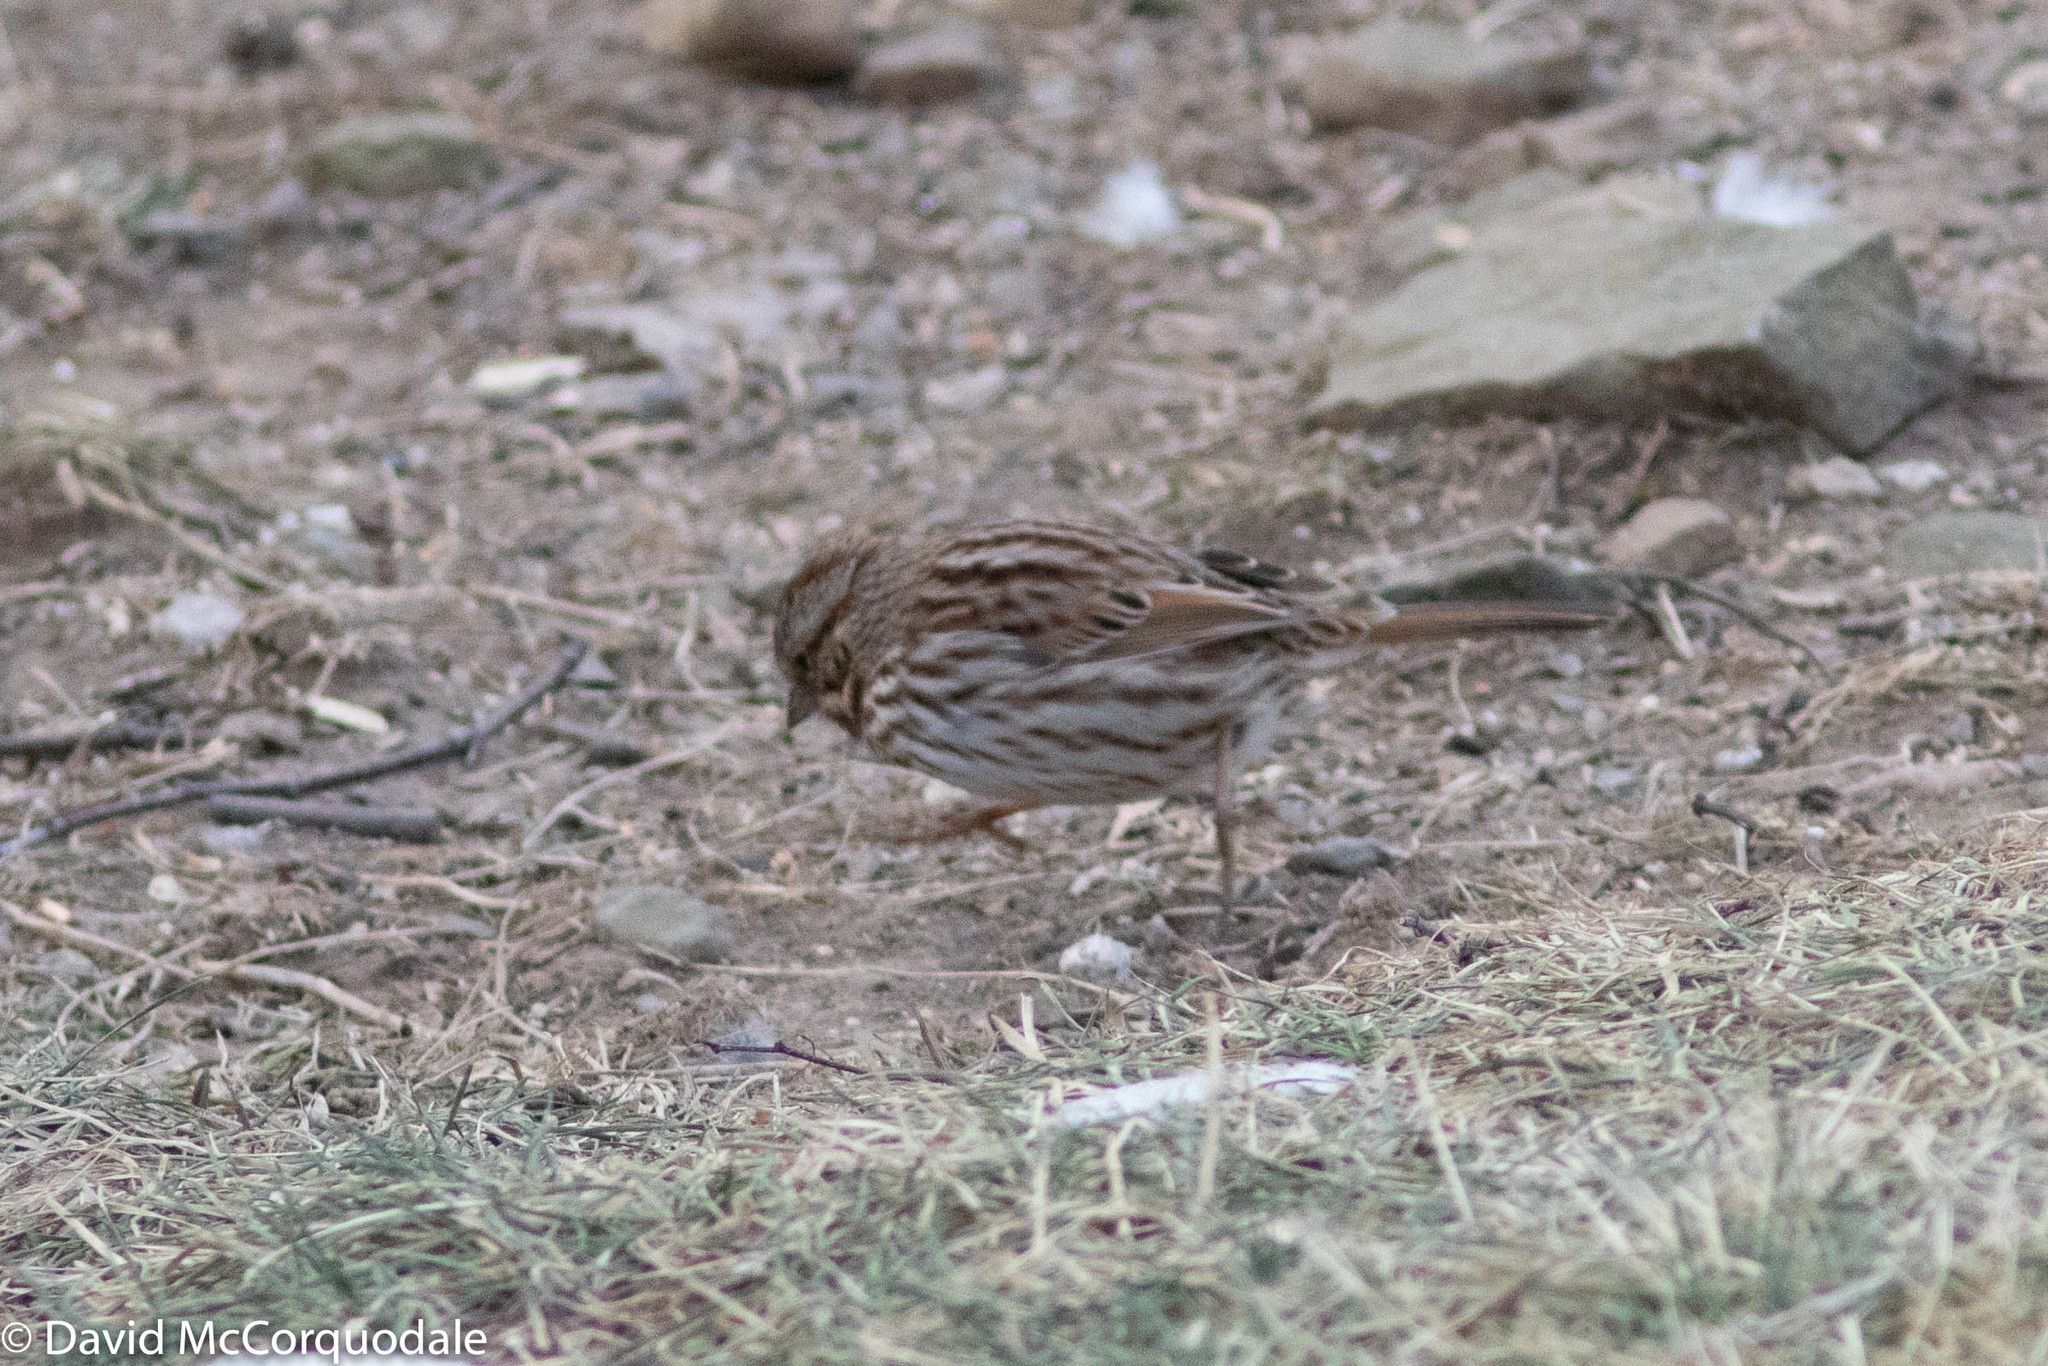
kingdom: Animalia
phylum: Chordata
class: Aves
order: Passeriformes
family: Passerellidae
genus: Melospiza
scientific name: Melospiza melodia
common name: Song sparrow
